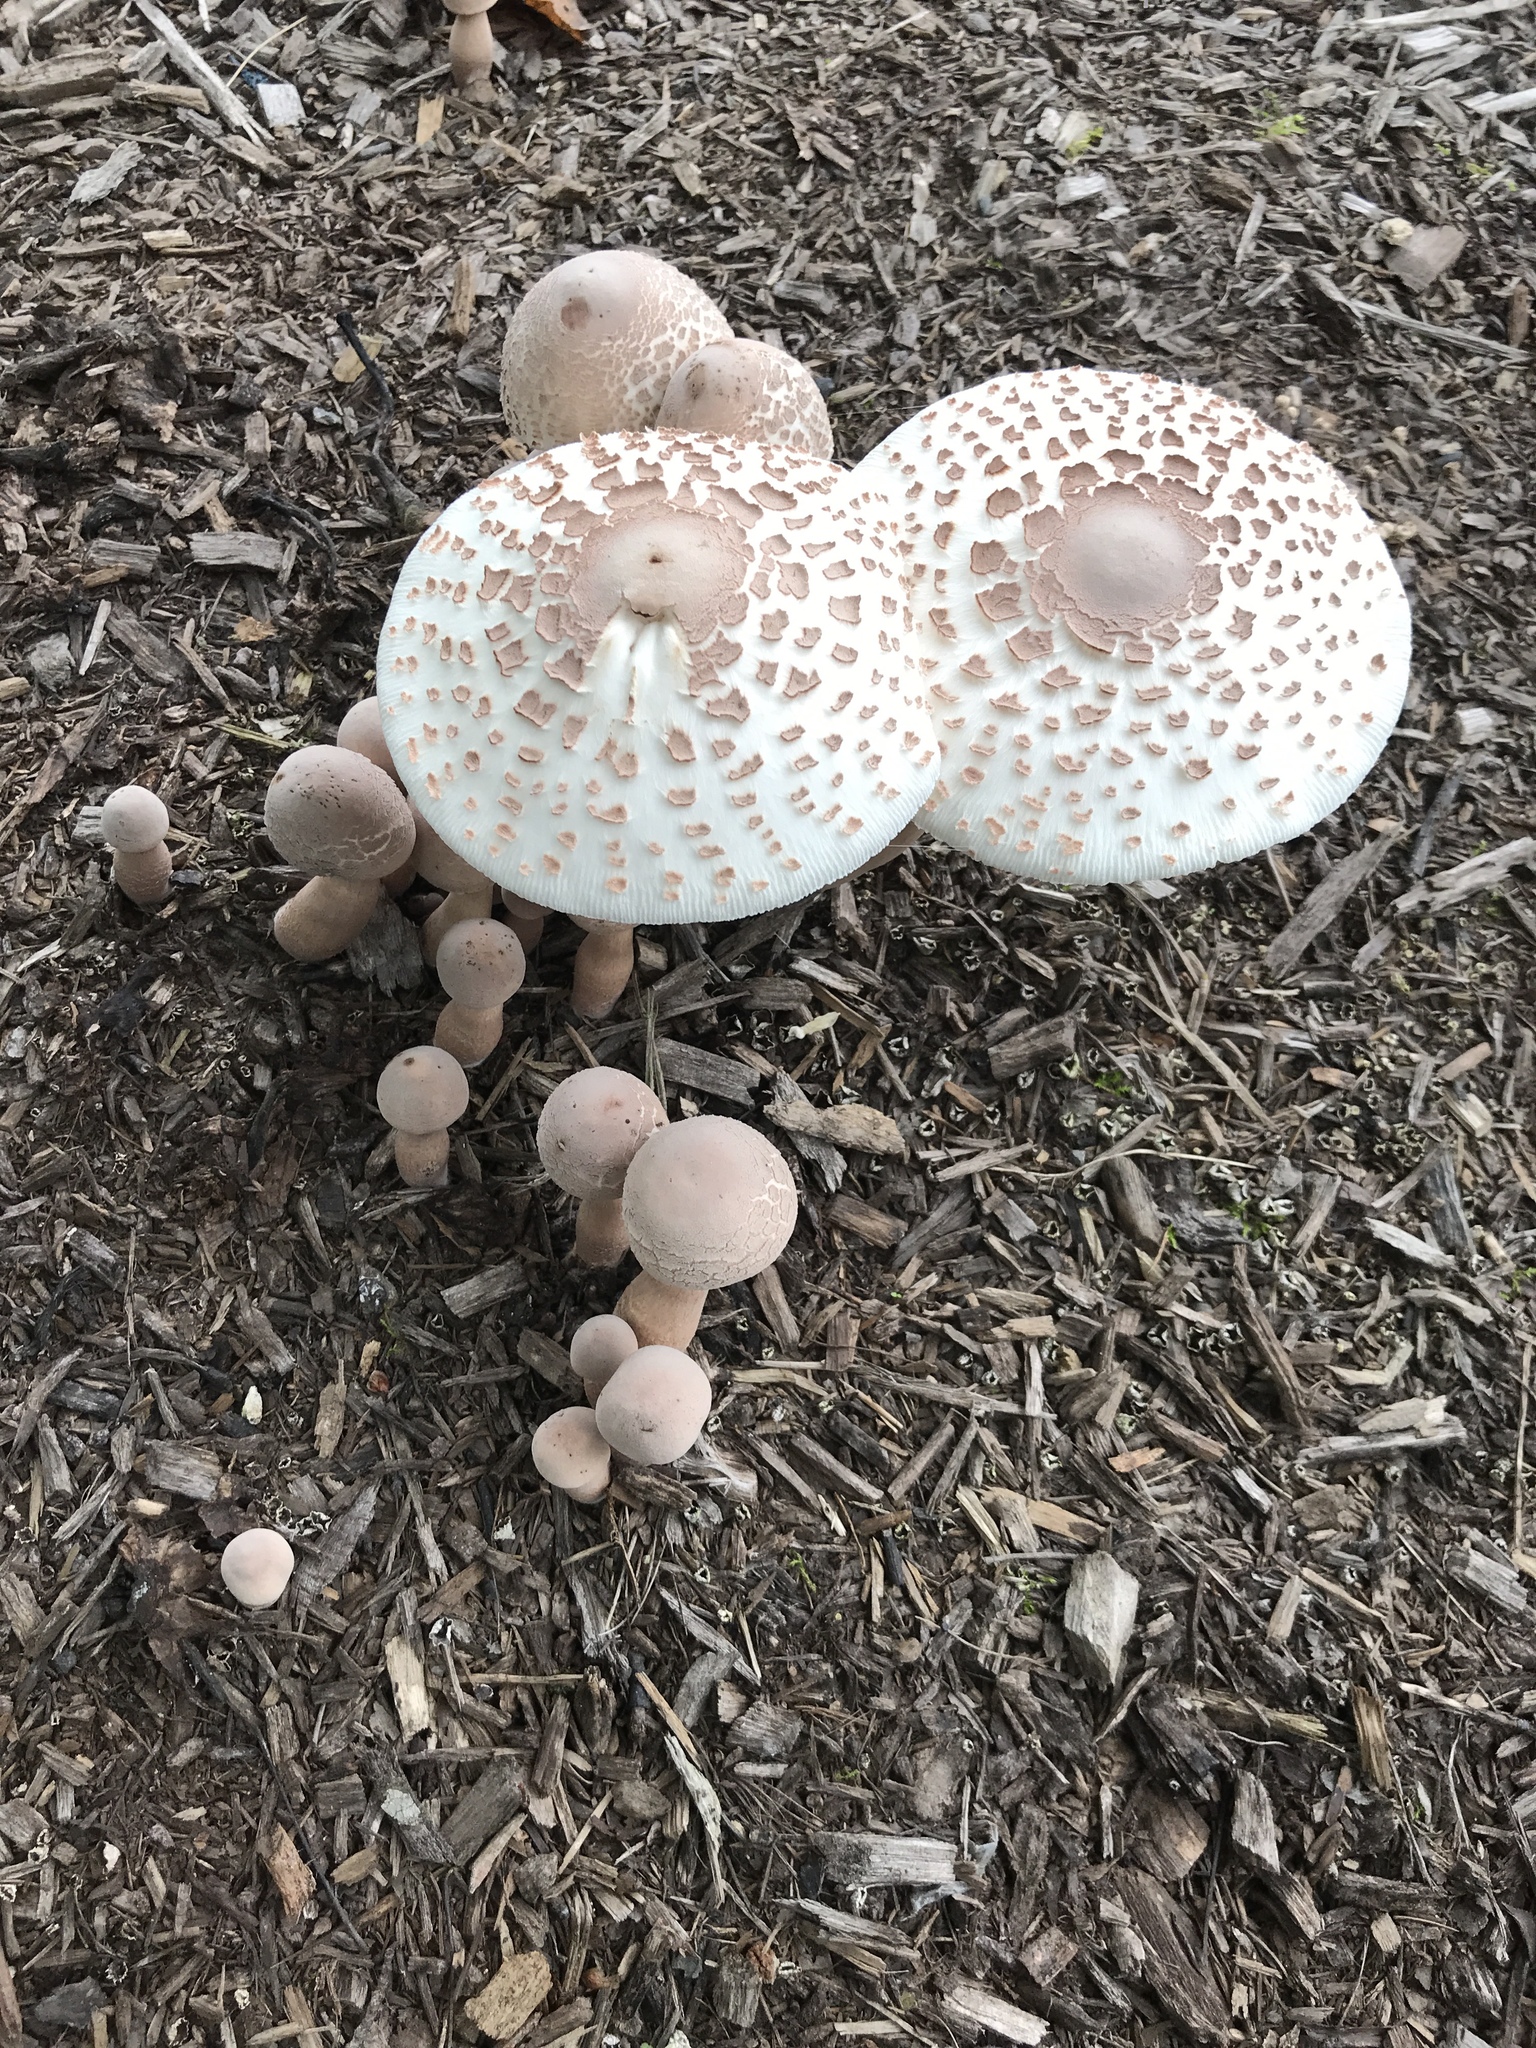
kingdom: Fungi
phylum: Basidiomycota
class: Agaricomycetes
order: Agaricales
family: Agaricaceae
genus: Leucoagaricus
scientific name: Leucoagaricus americanus
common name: Reddening lepiota
